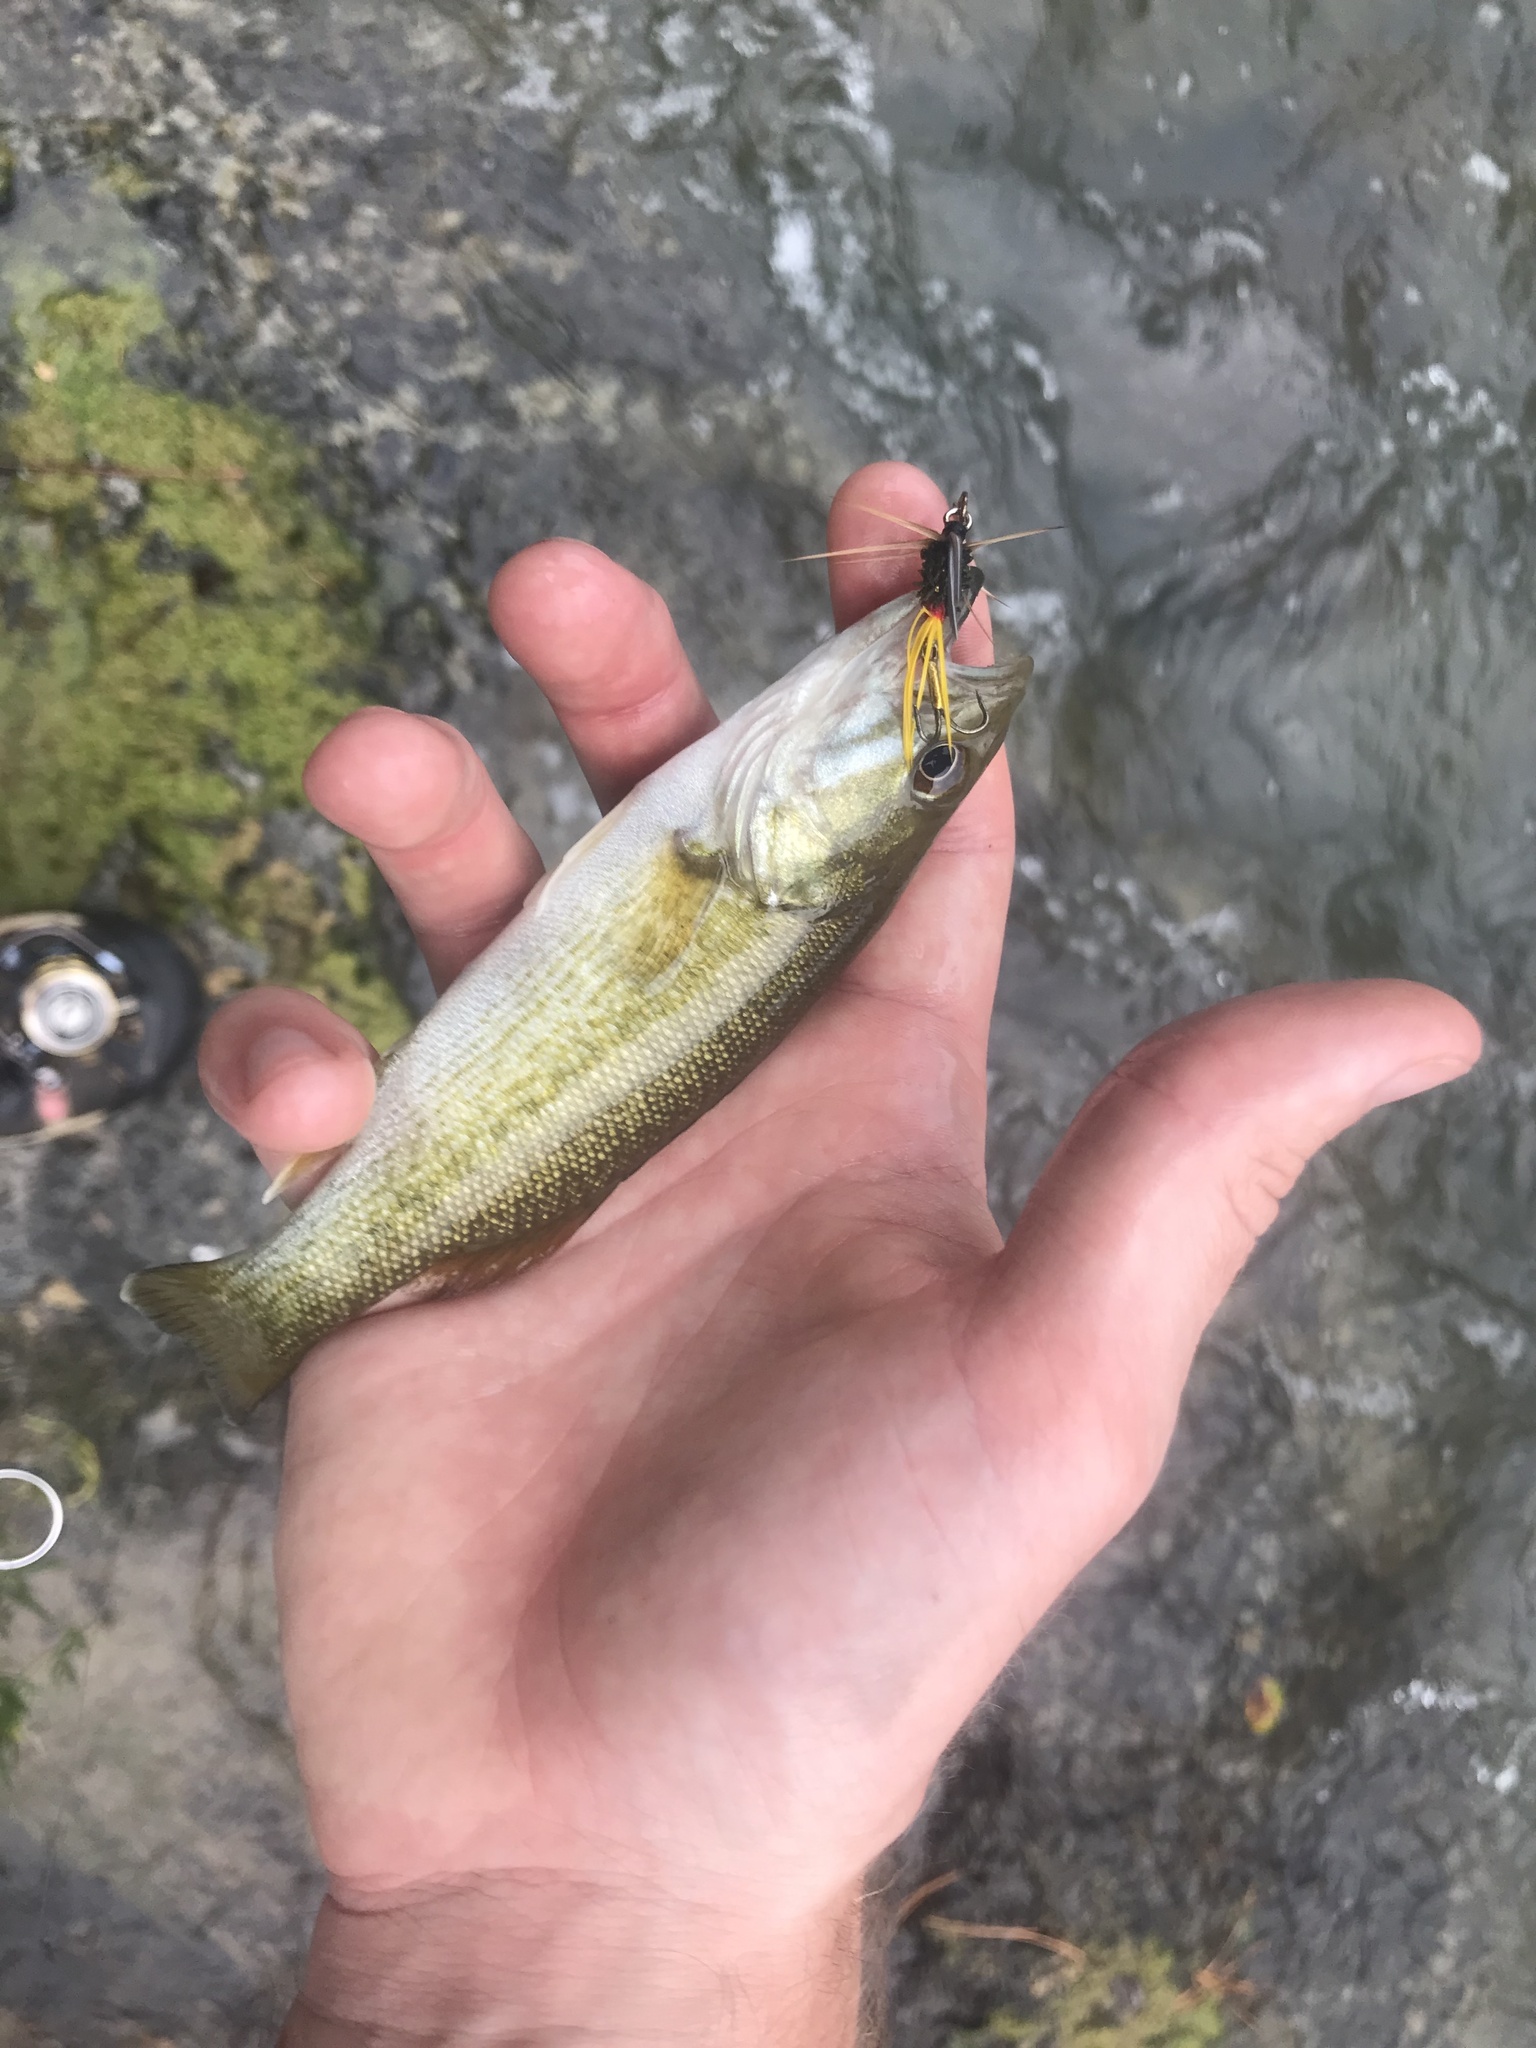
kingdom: Animalia
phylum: Chordata
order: Perciformes
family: Centrarchidae
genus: Micropterus
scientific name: Micropterus cahabae
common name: Cahaba bass
